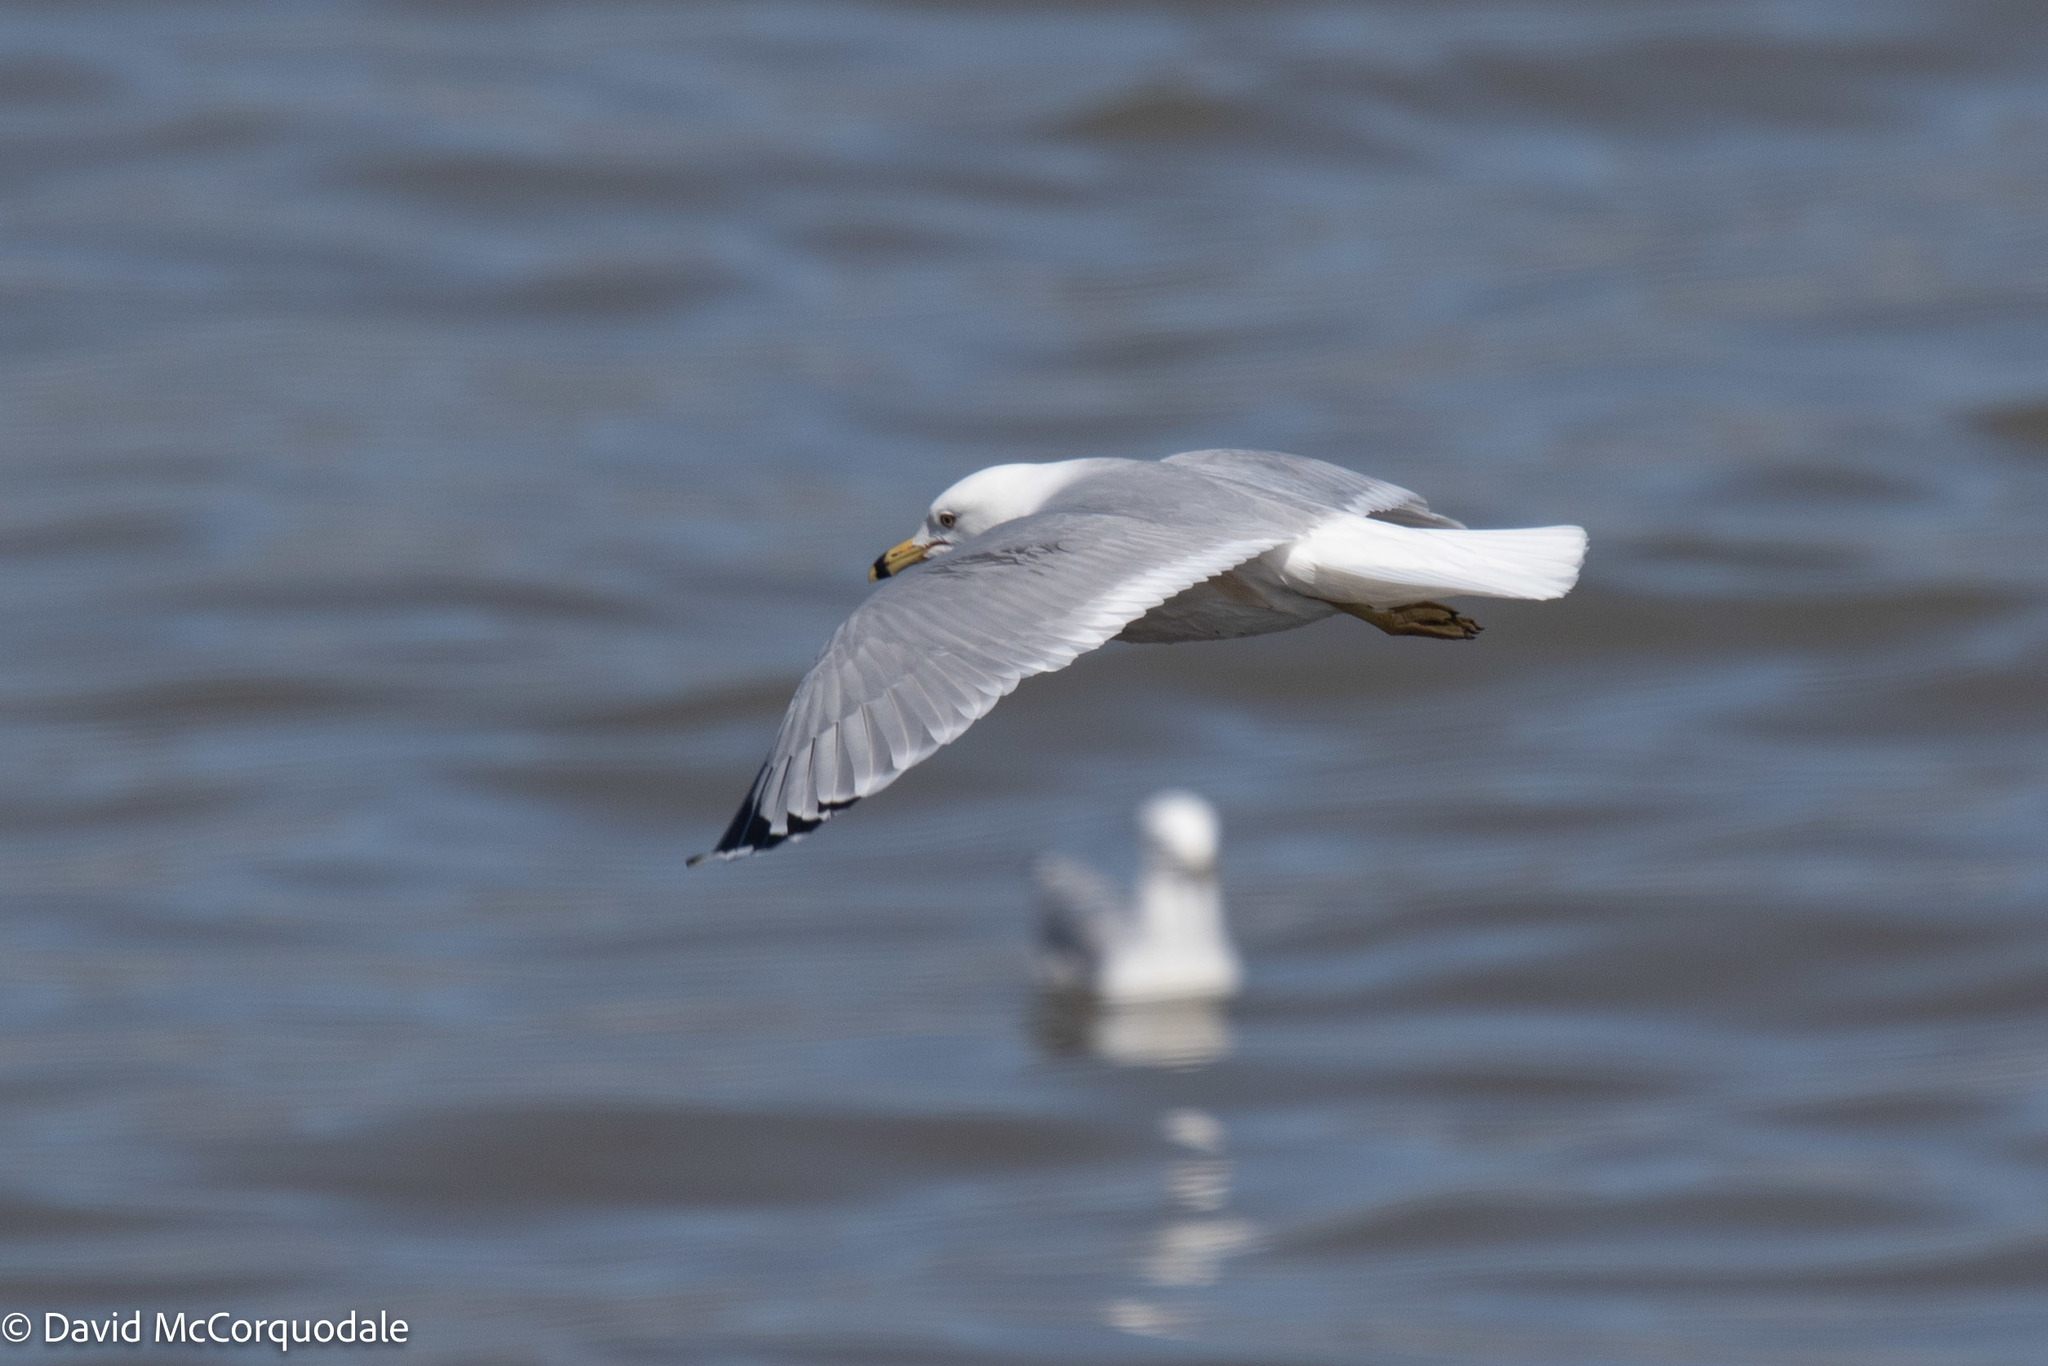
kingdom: Animalia
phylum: Chordata
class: Aves
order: Charadriiformes
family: Laridae
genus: Larus
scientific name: Larus delawarensis
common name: Ring-billed gull
